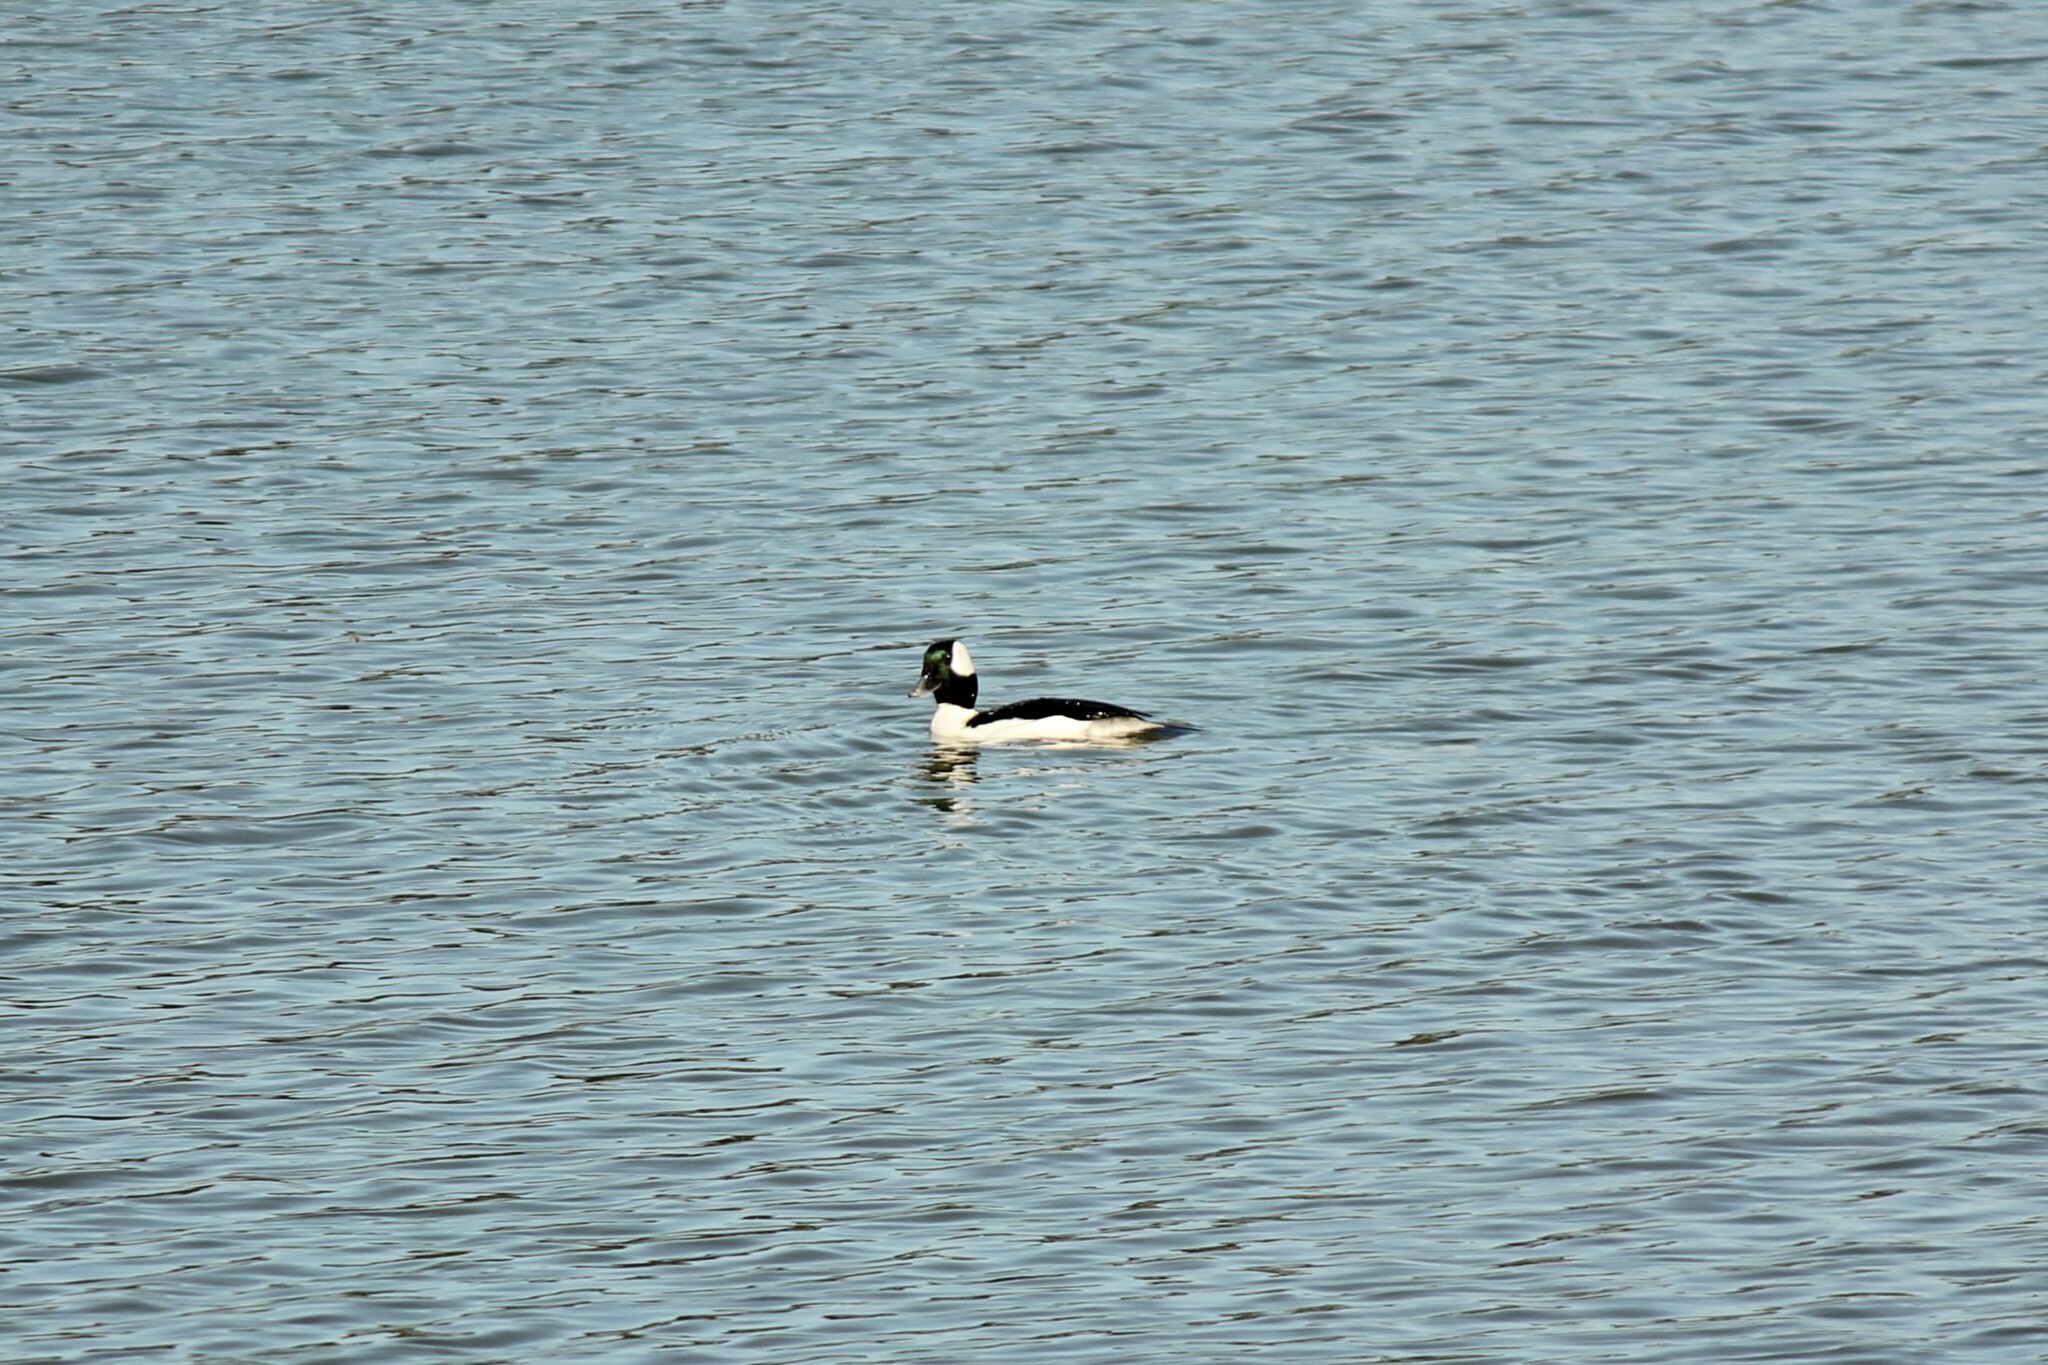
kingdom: Animalia
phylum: Chordata
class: Aves
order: Anseriformes
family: Anatidae
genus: Bucephala
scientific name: Bucephala albeola
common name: Bufflehead
